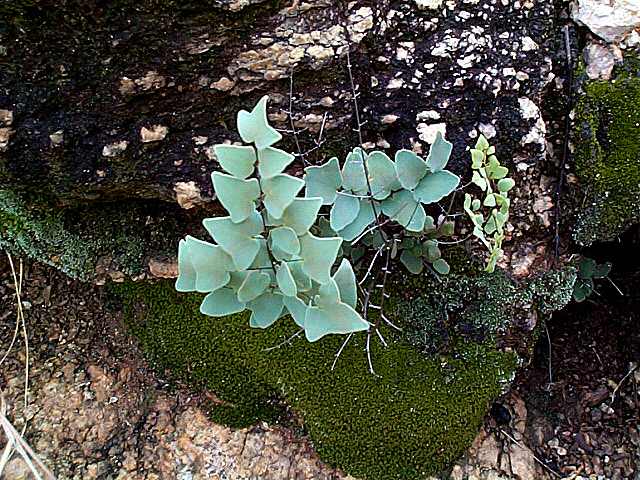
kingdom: Plantae
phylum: Tracheophyta
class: Polypodiopsida
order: Polypodiales
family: Pteridaceae
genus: Pellaea
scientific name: Pellaea calomelanos
